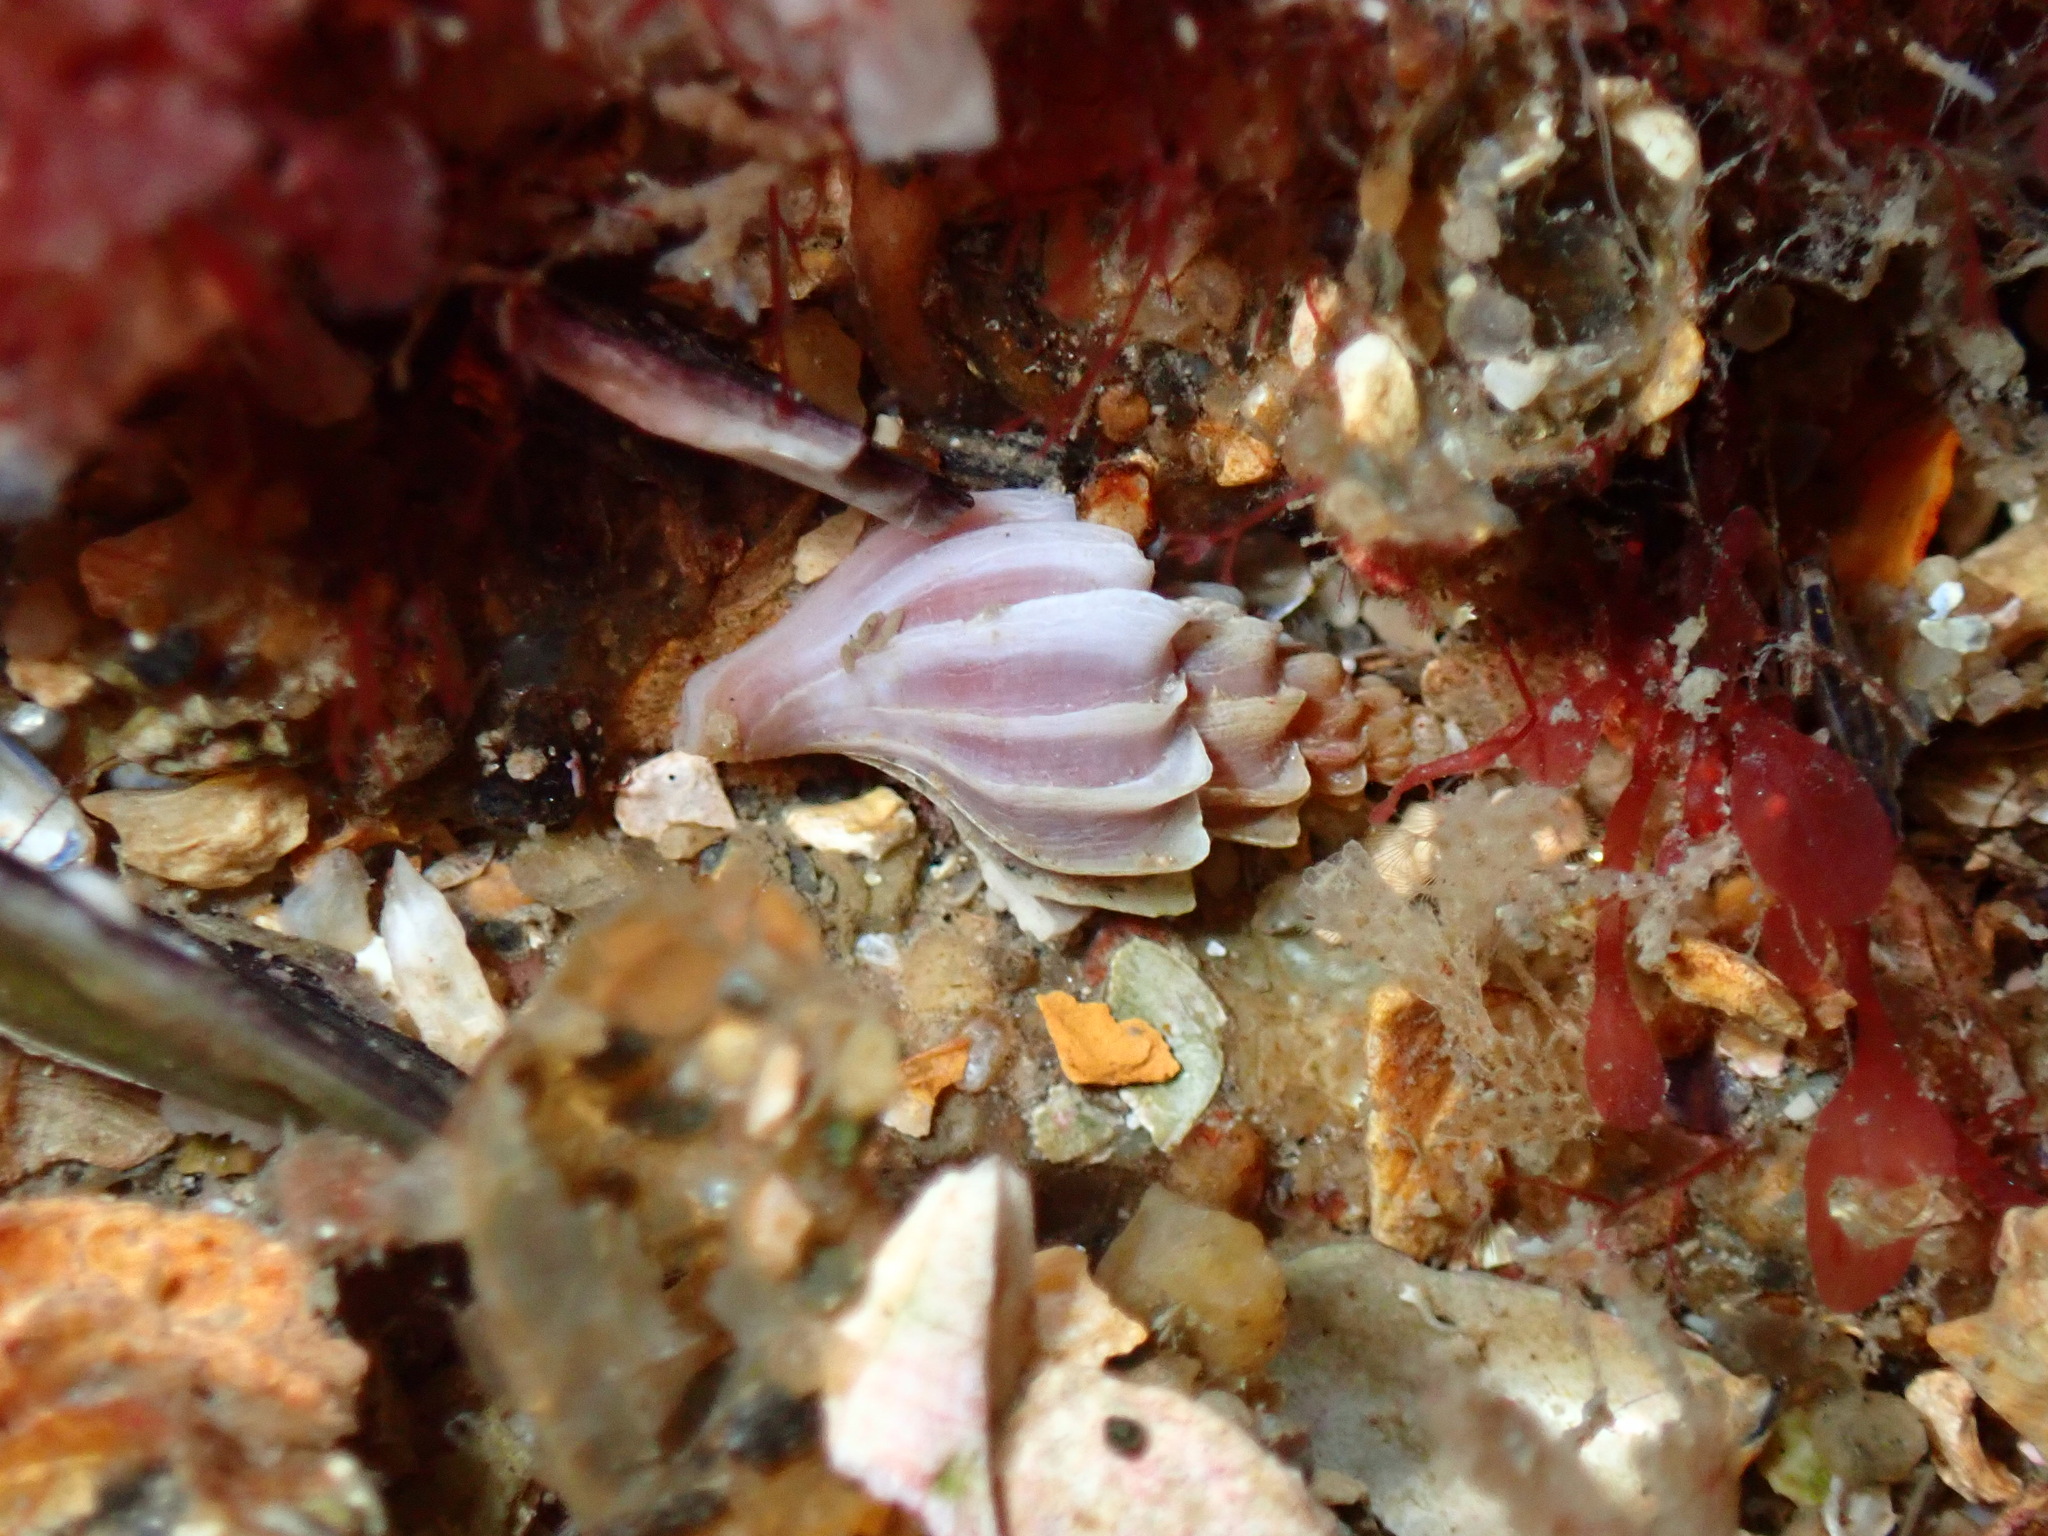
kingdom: Animalia
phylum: Mollusca
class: Gastropoda
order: Neogastropoda
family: Muricidae
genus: Boreotrophon
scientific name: Boreotrophon clathratus
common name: Clathrate trophon
